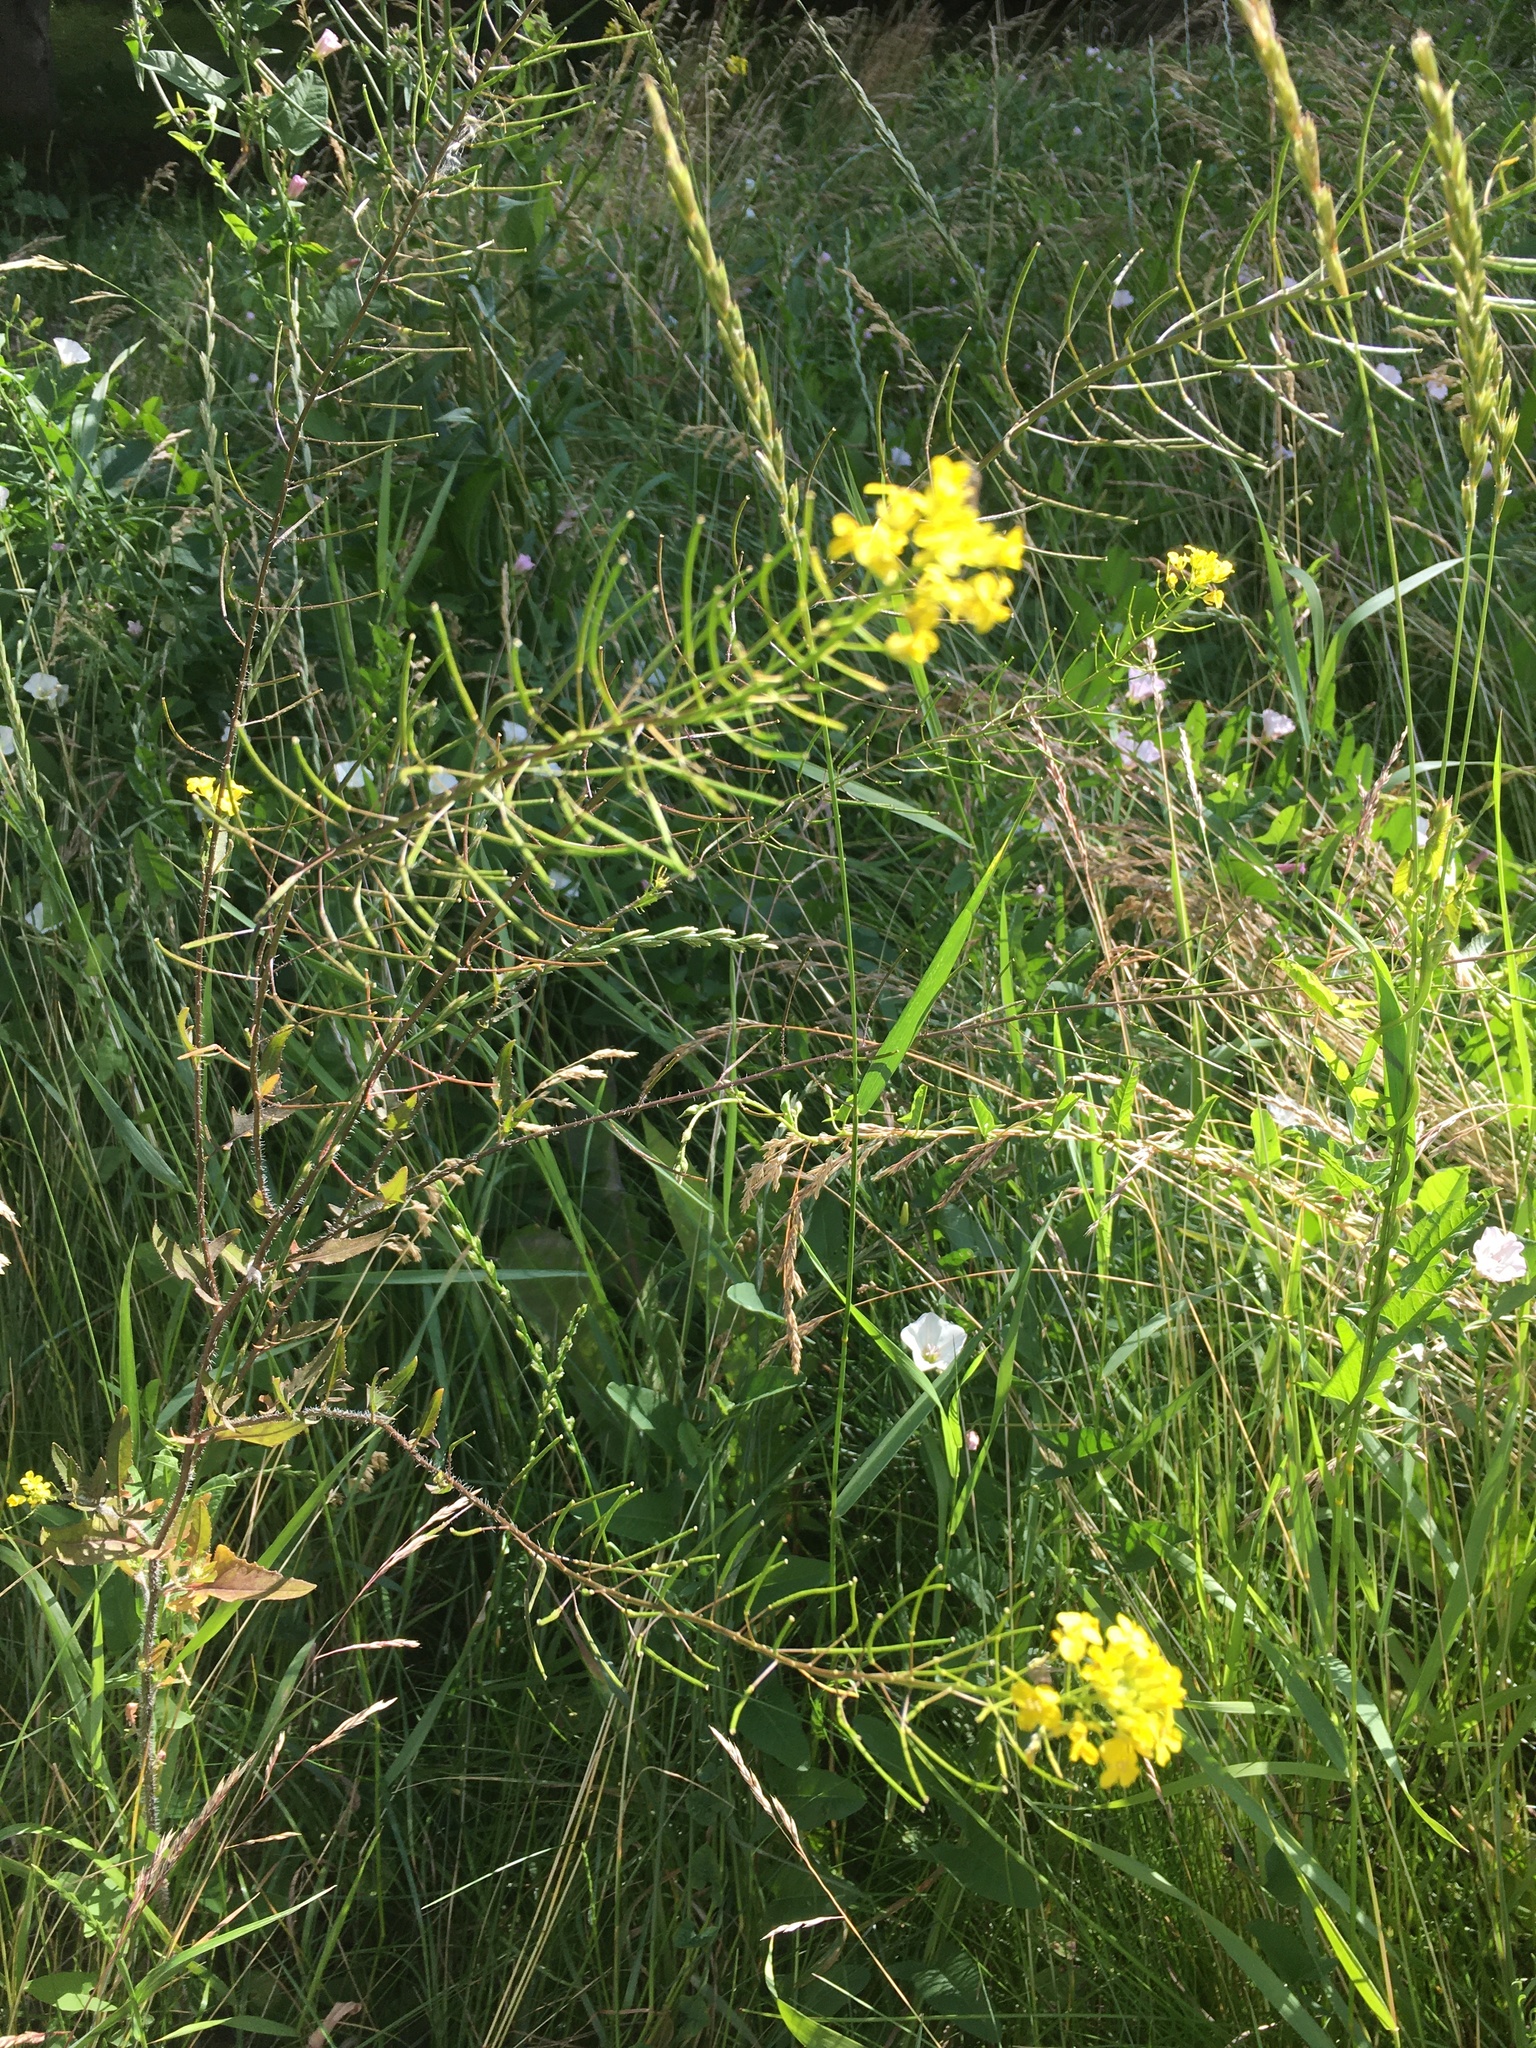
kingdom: Plantae
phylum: Tracheophyta
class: Magnoliopsida
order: Brassicales
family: Brassicaceae
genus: Sisymbrium
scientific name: Sisymbrium loeselii
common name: False london-rocket
